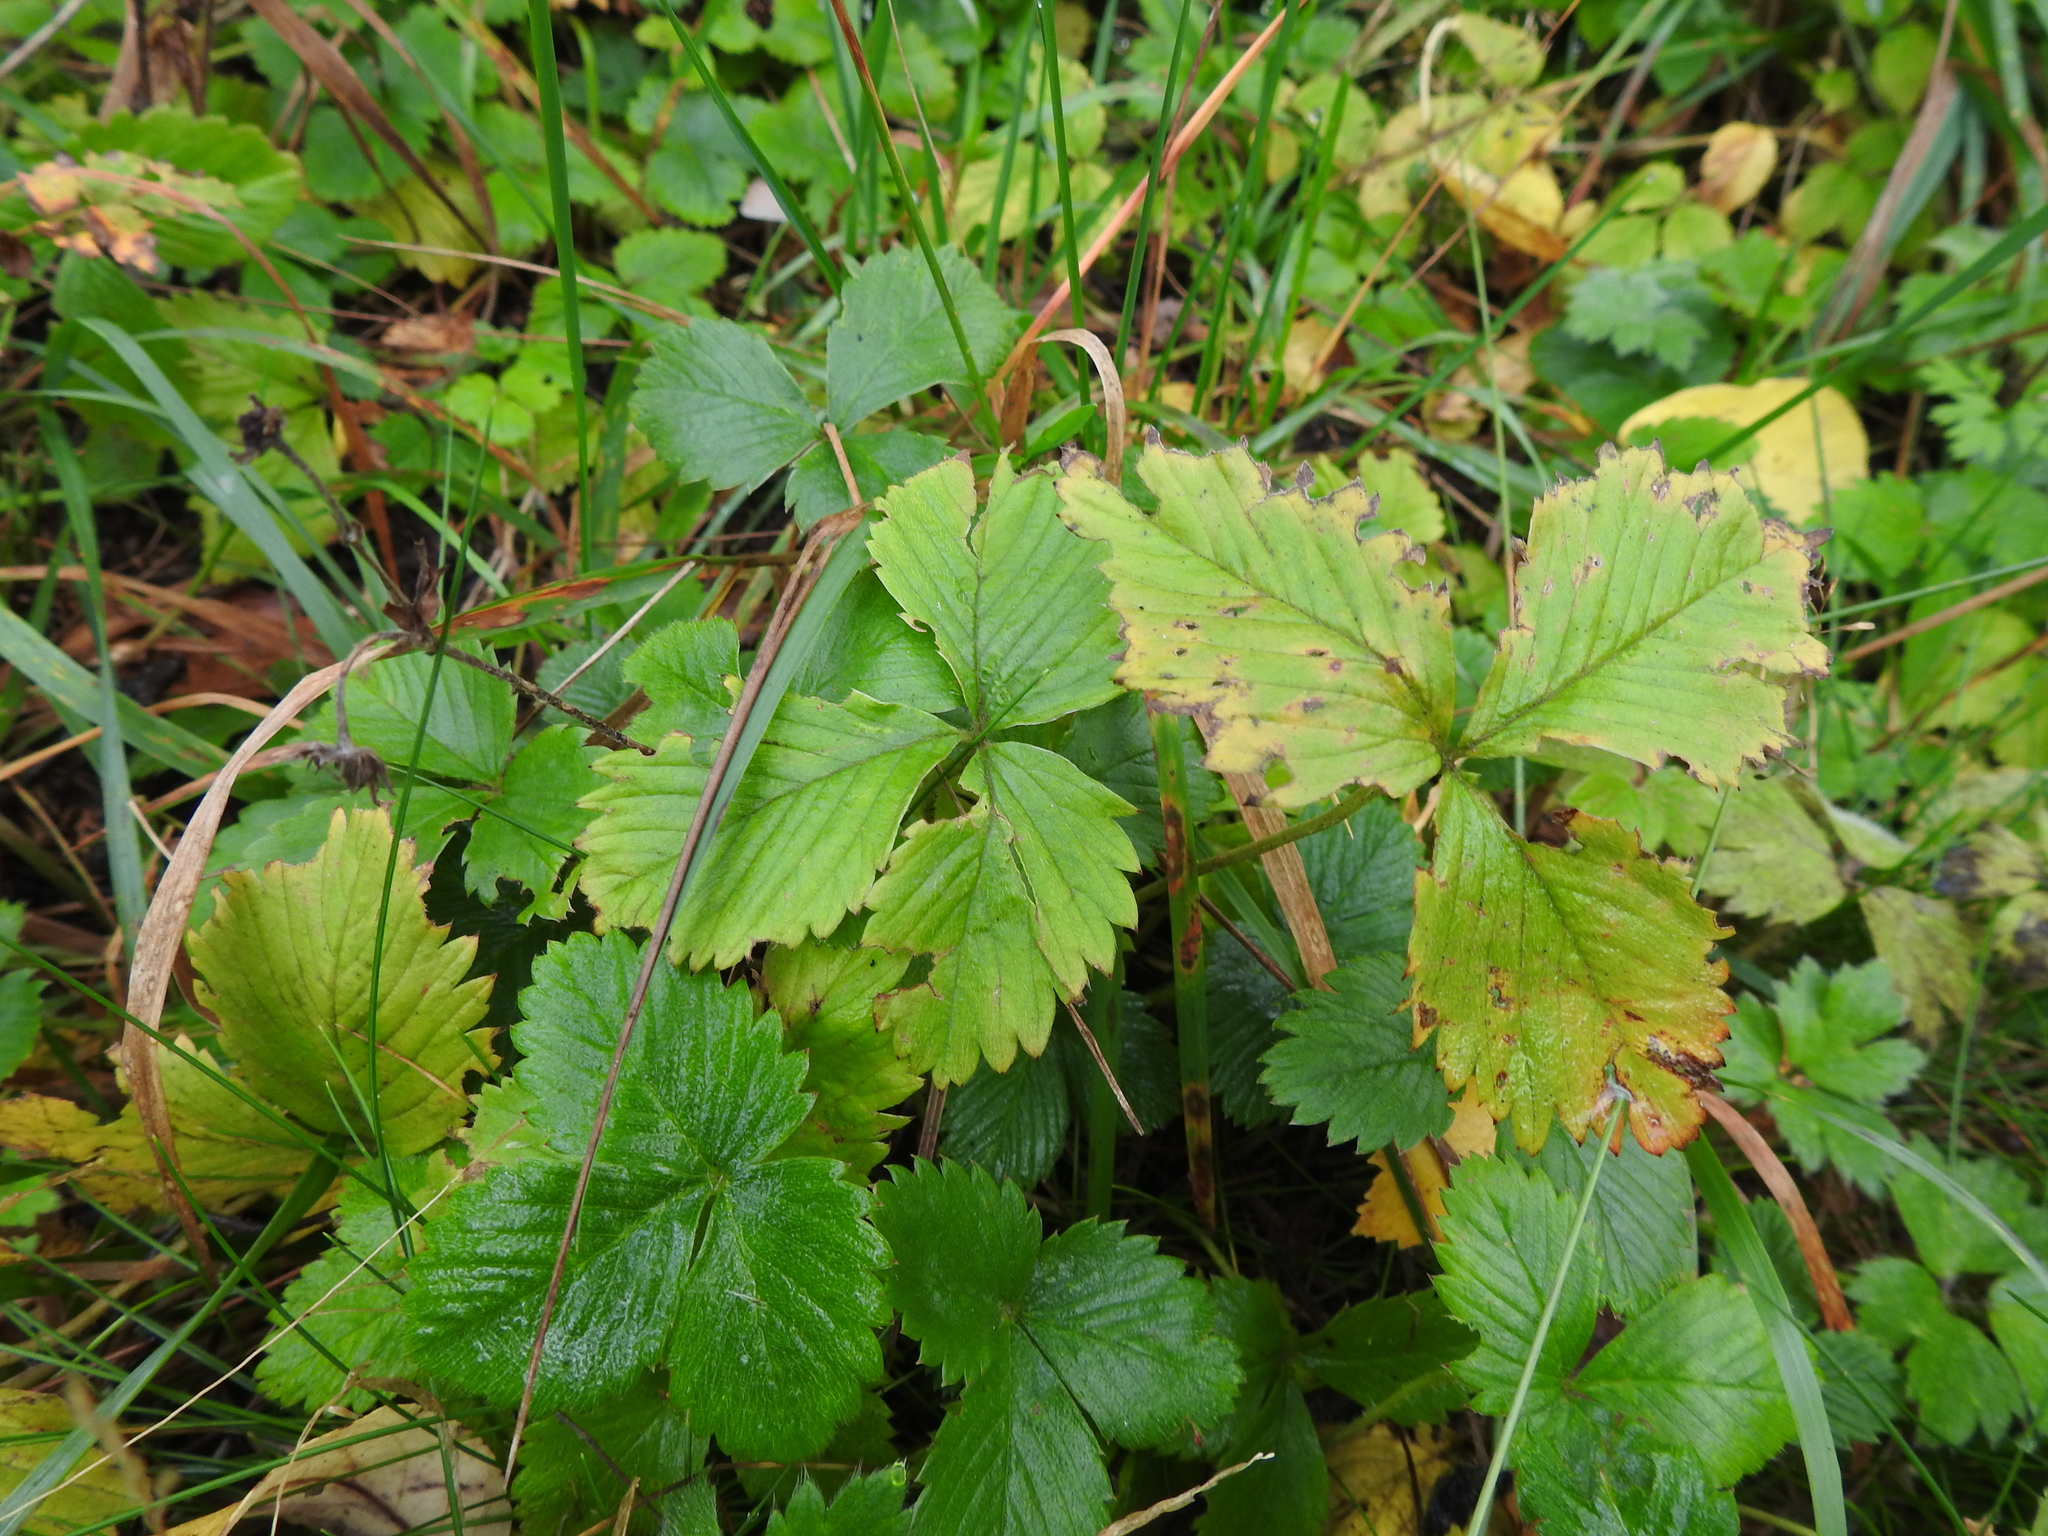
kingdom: Plantae
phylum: Tracheophyta
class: Magnoliopsida
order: Rosales
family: Rosaceae
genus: Fragaria
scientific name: Fragaria vesca
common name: Wild strawberry
